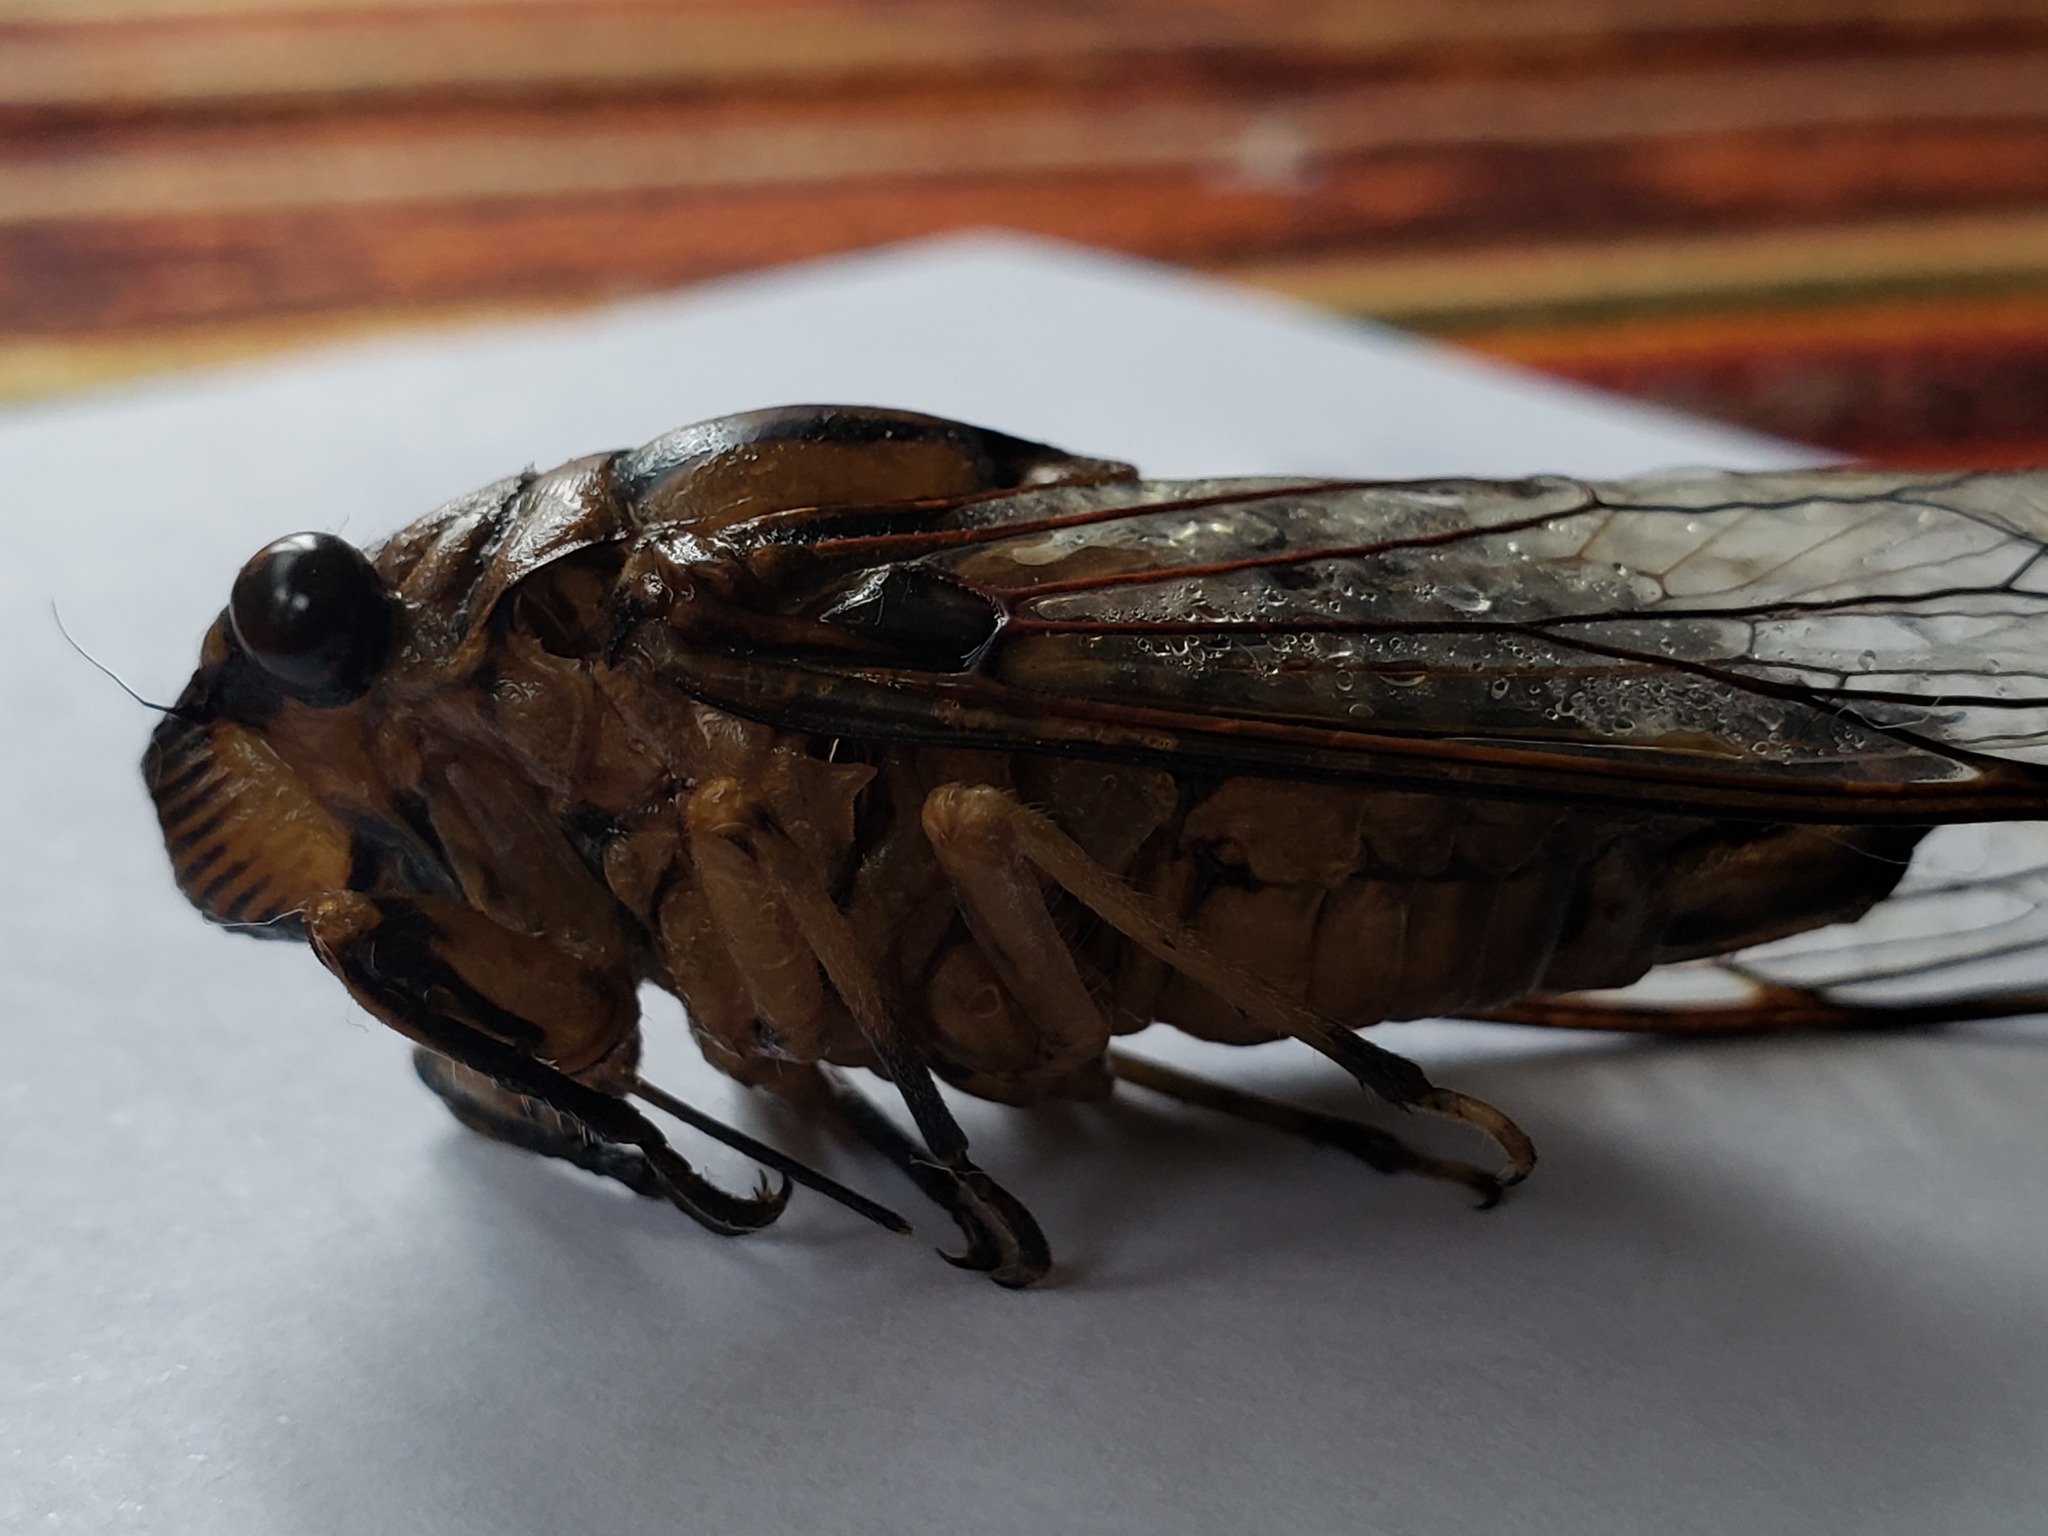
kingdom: Animalia
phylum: Arthropoda
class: Insecta
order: Hemiptera
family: Cicadidae
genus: Quesada
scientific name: Quesada gigas
